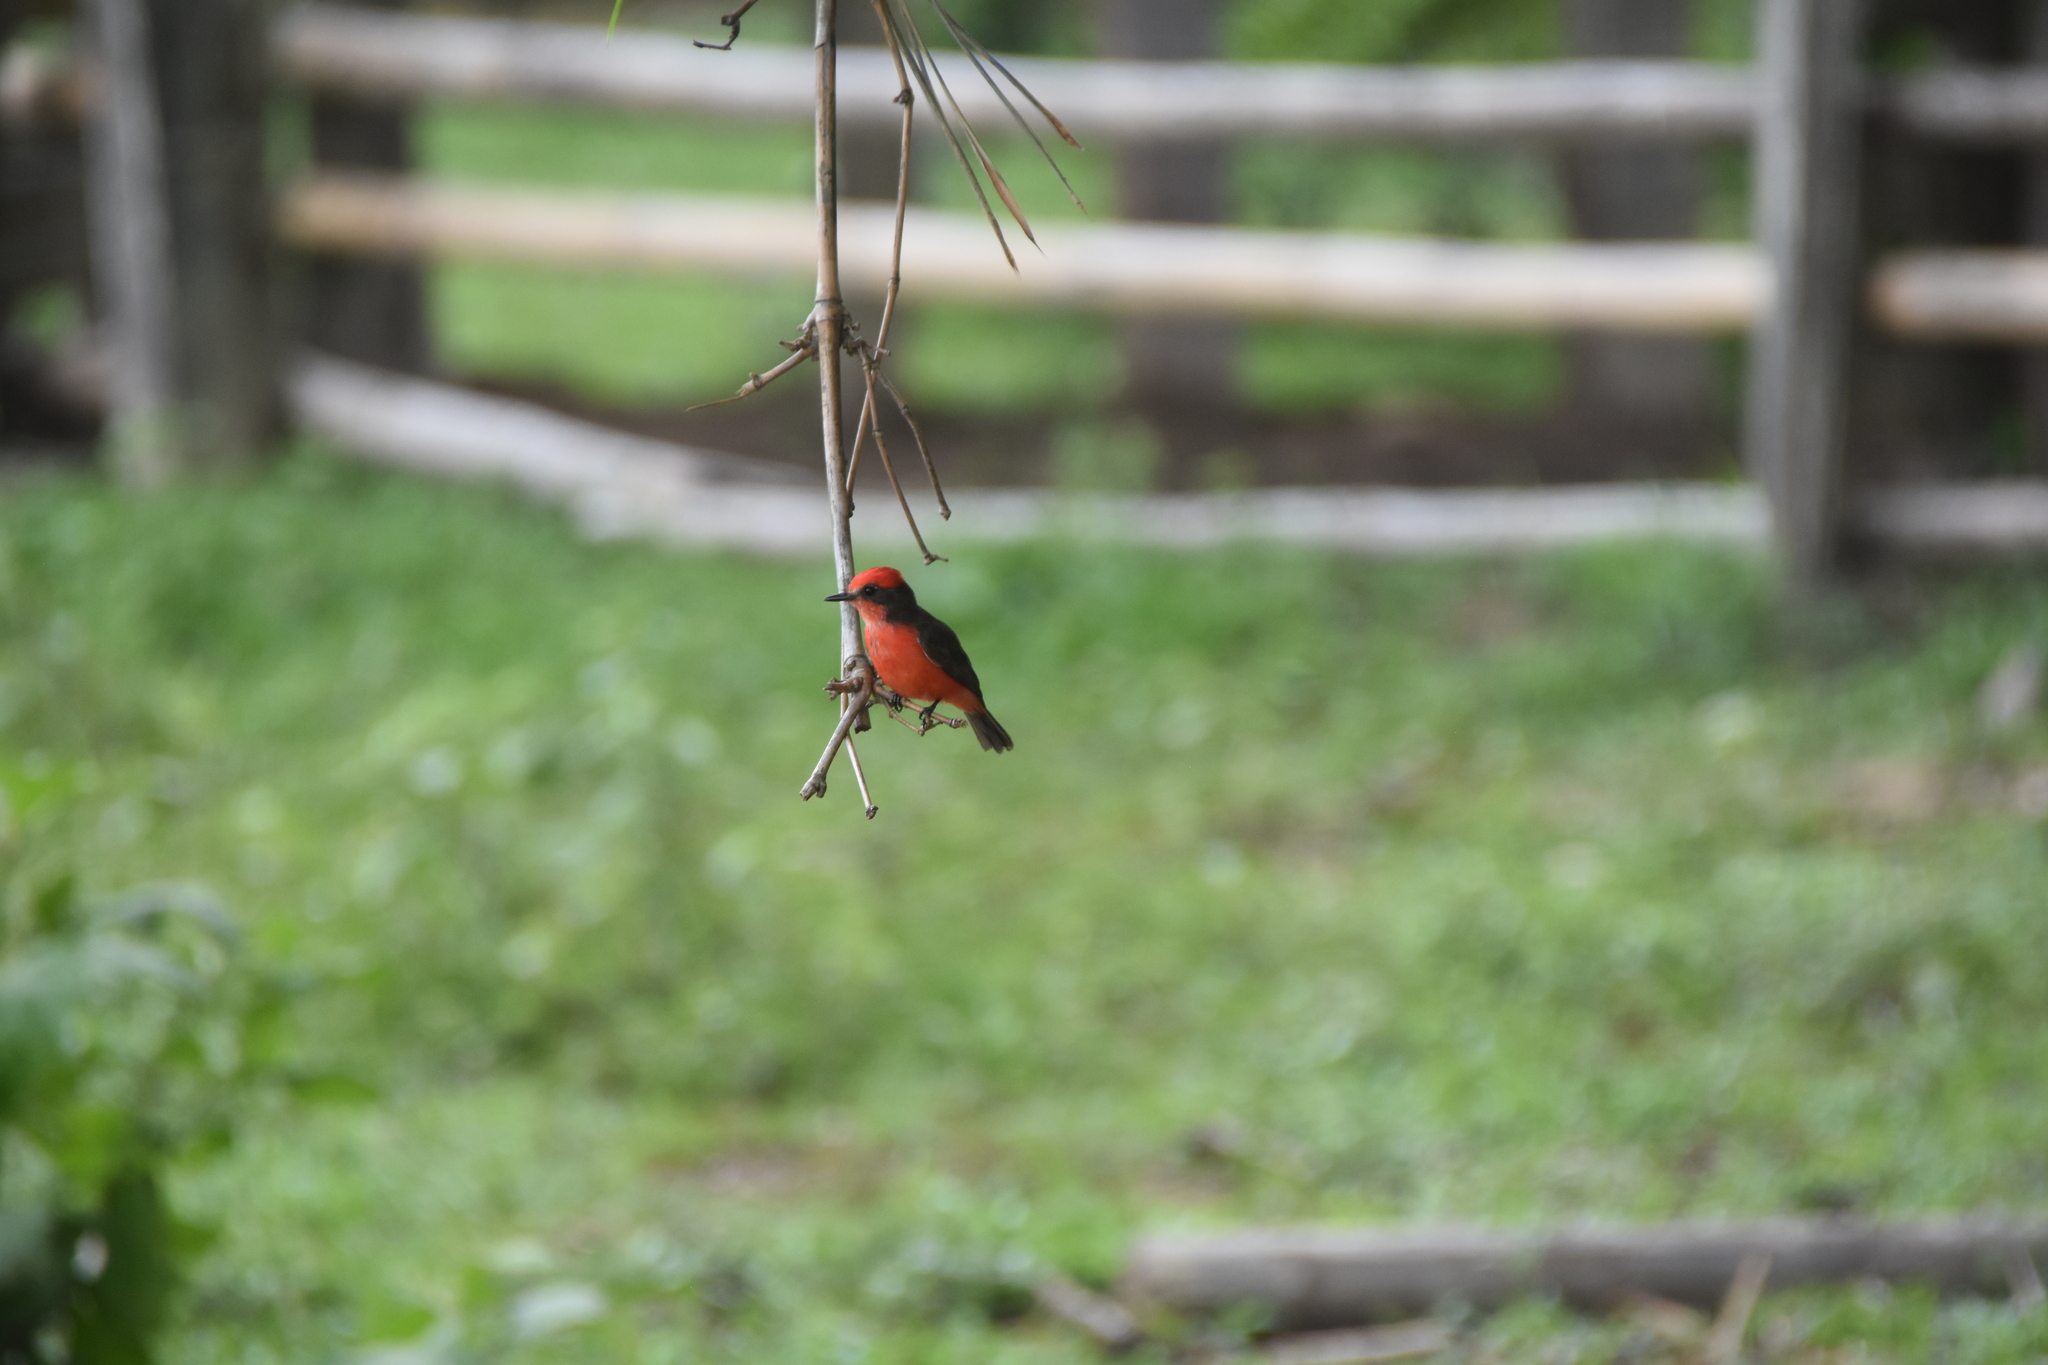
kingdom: Animalia
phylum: Chordata
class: Aves
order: Passeriformes
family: Tyrannidae
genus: Pyrocephalus
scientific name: Pyrocephalus rubinus
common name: Vermilion flycatcher
